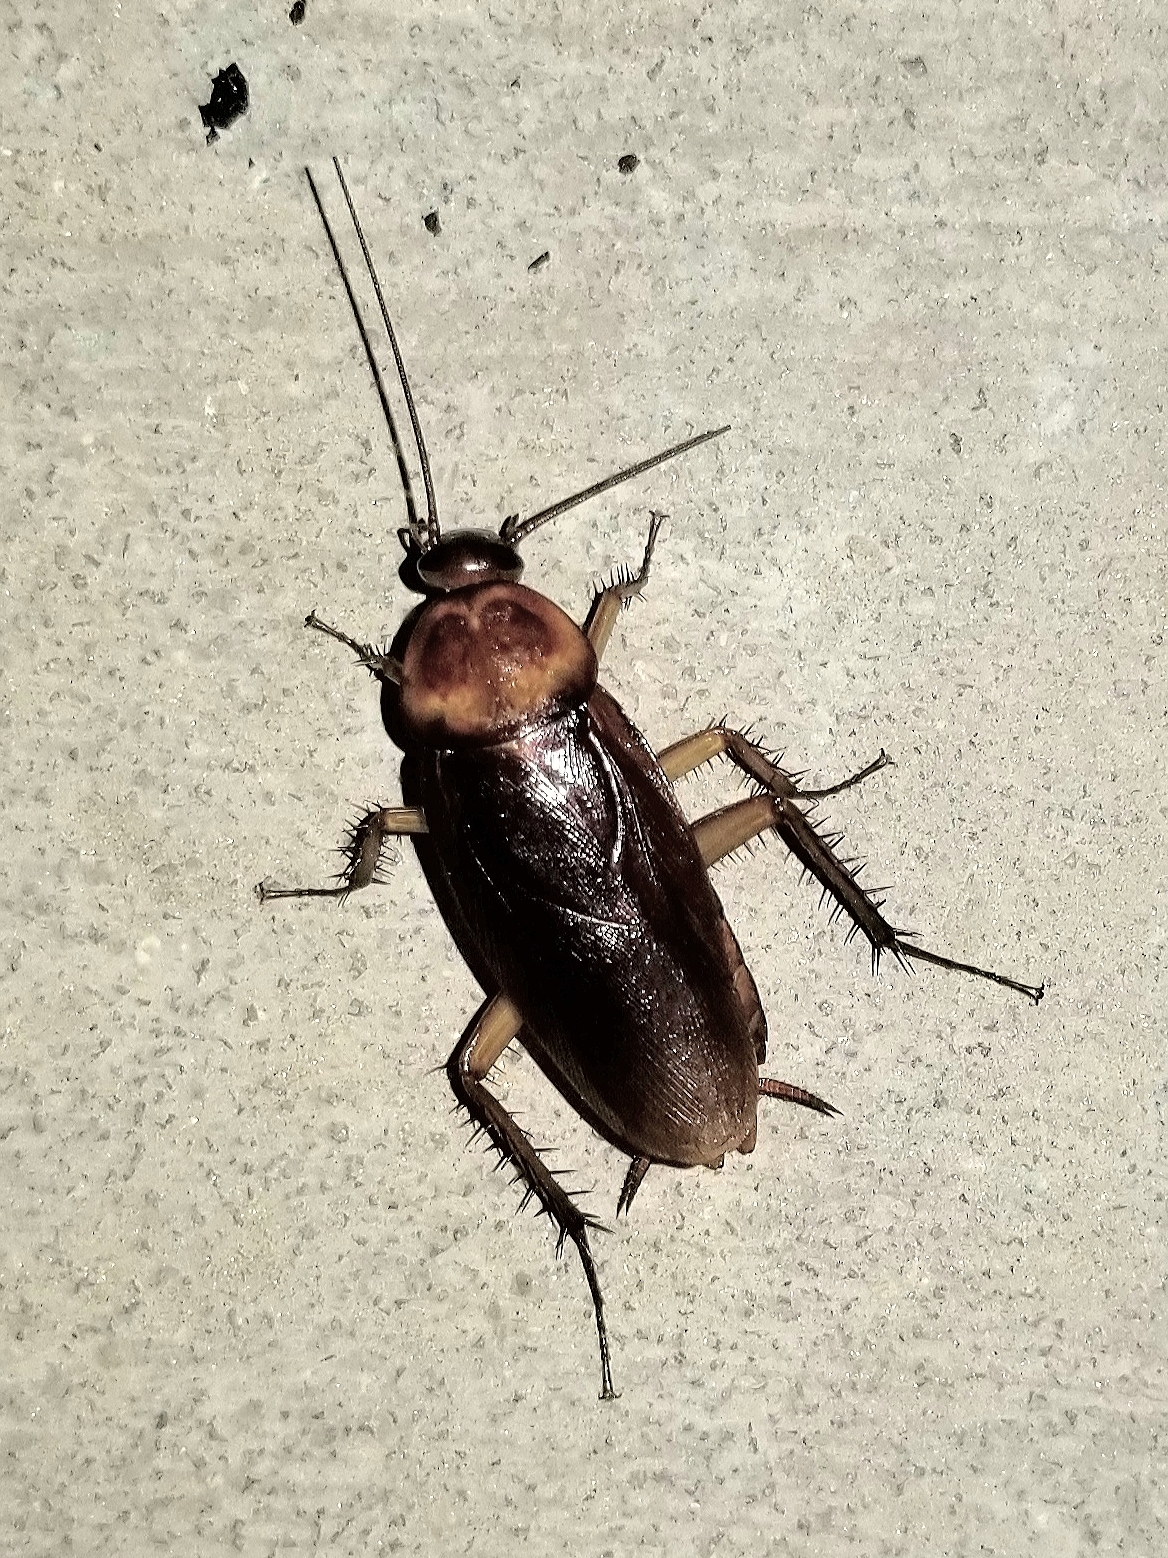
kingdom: Animalia
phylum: Arthropoda
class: Insecta
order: Blattodea
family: Blattidae
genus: Periplaneta
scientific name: Periplaneta americana
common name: American cockroach
